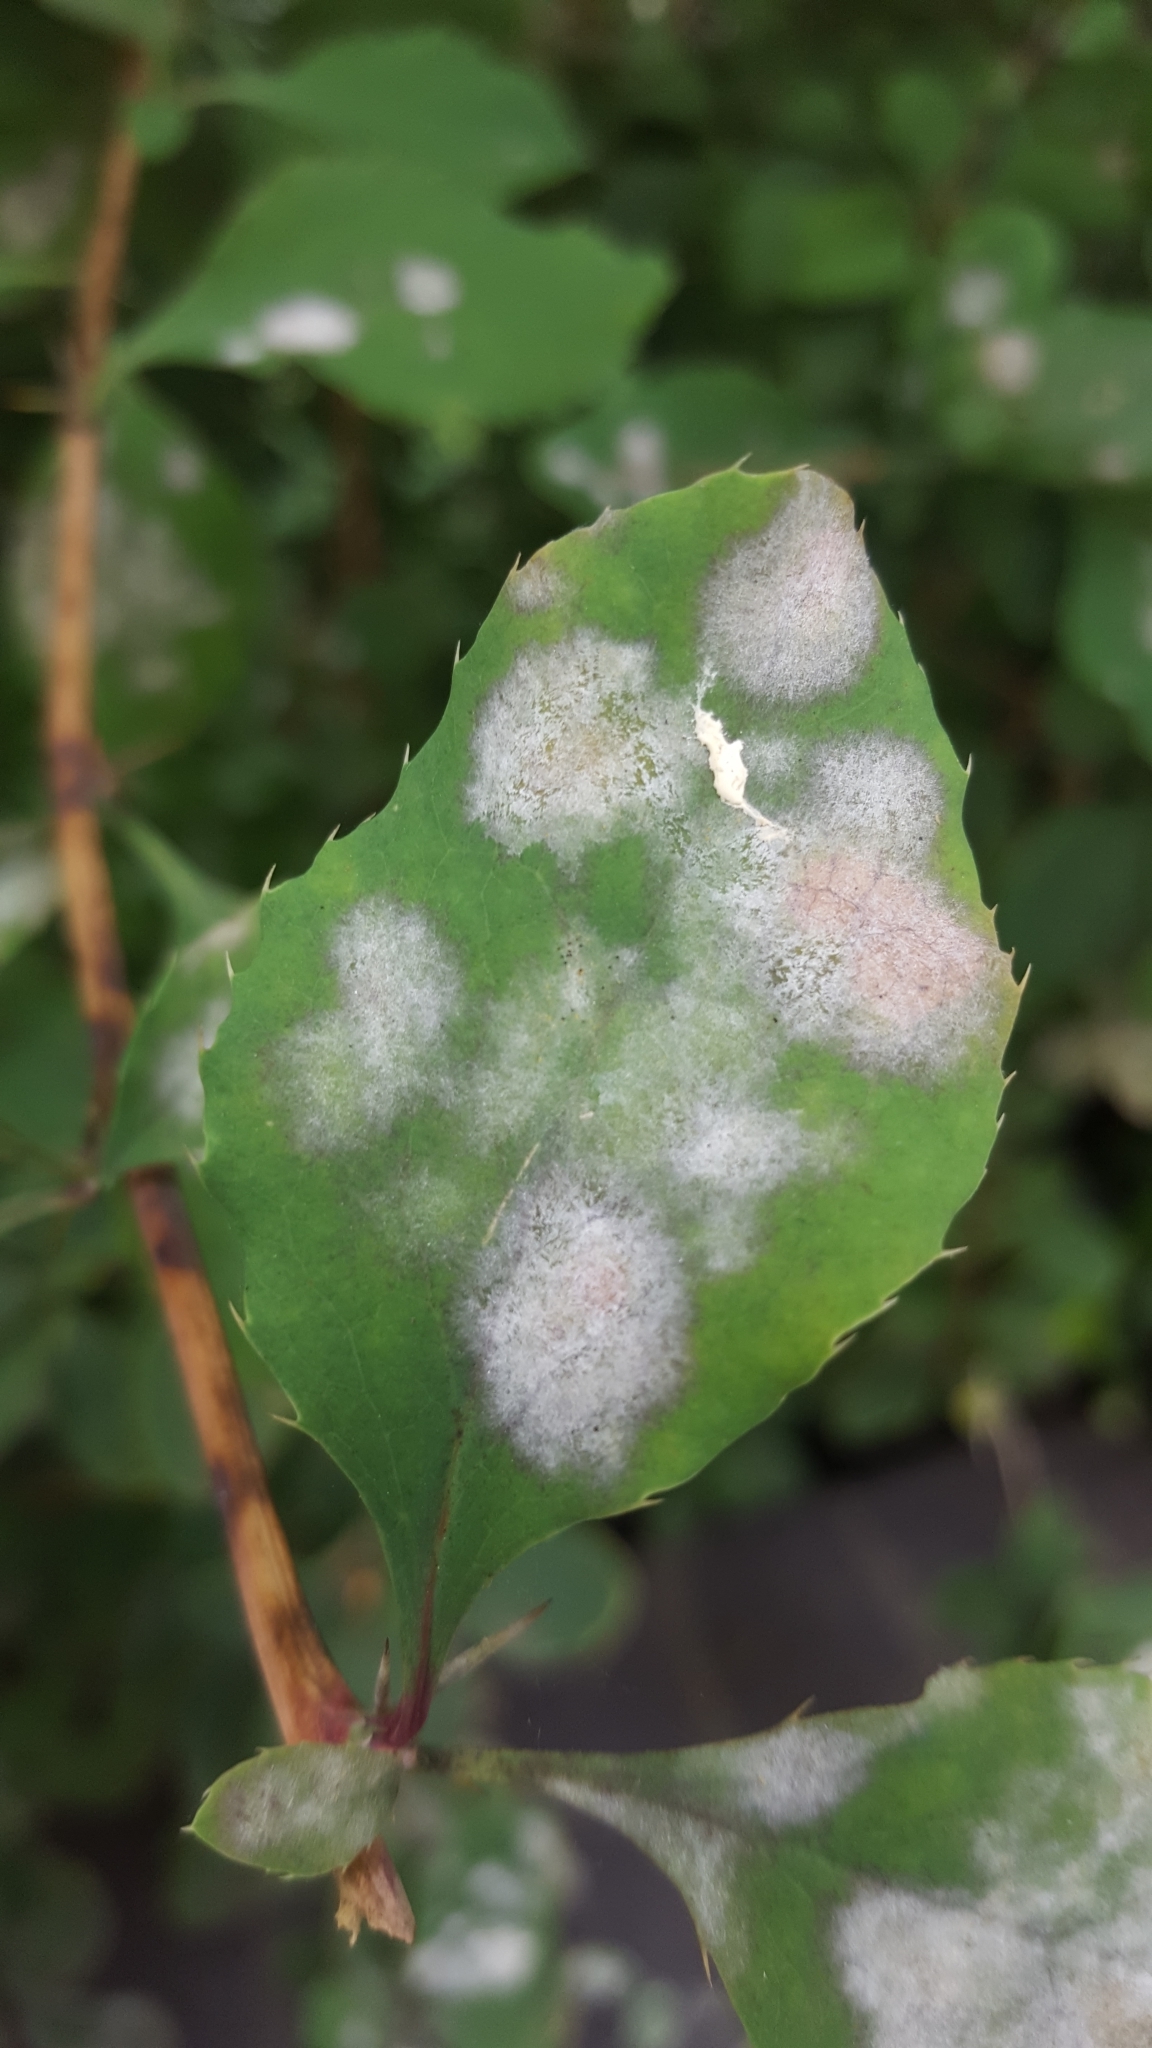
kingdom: Fungi
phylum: Ascomycota
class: Leotiomycetes
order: Helotiales
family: Erysiphaceae
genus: Erysiphe
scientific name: Erysiphe berberidis
